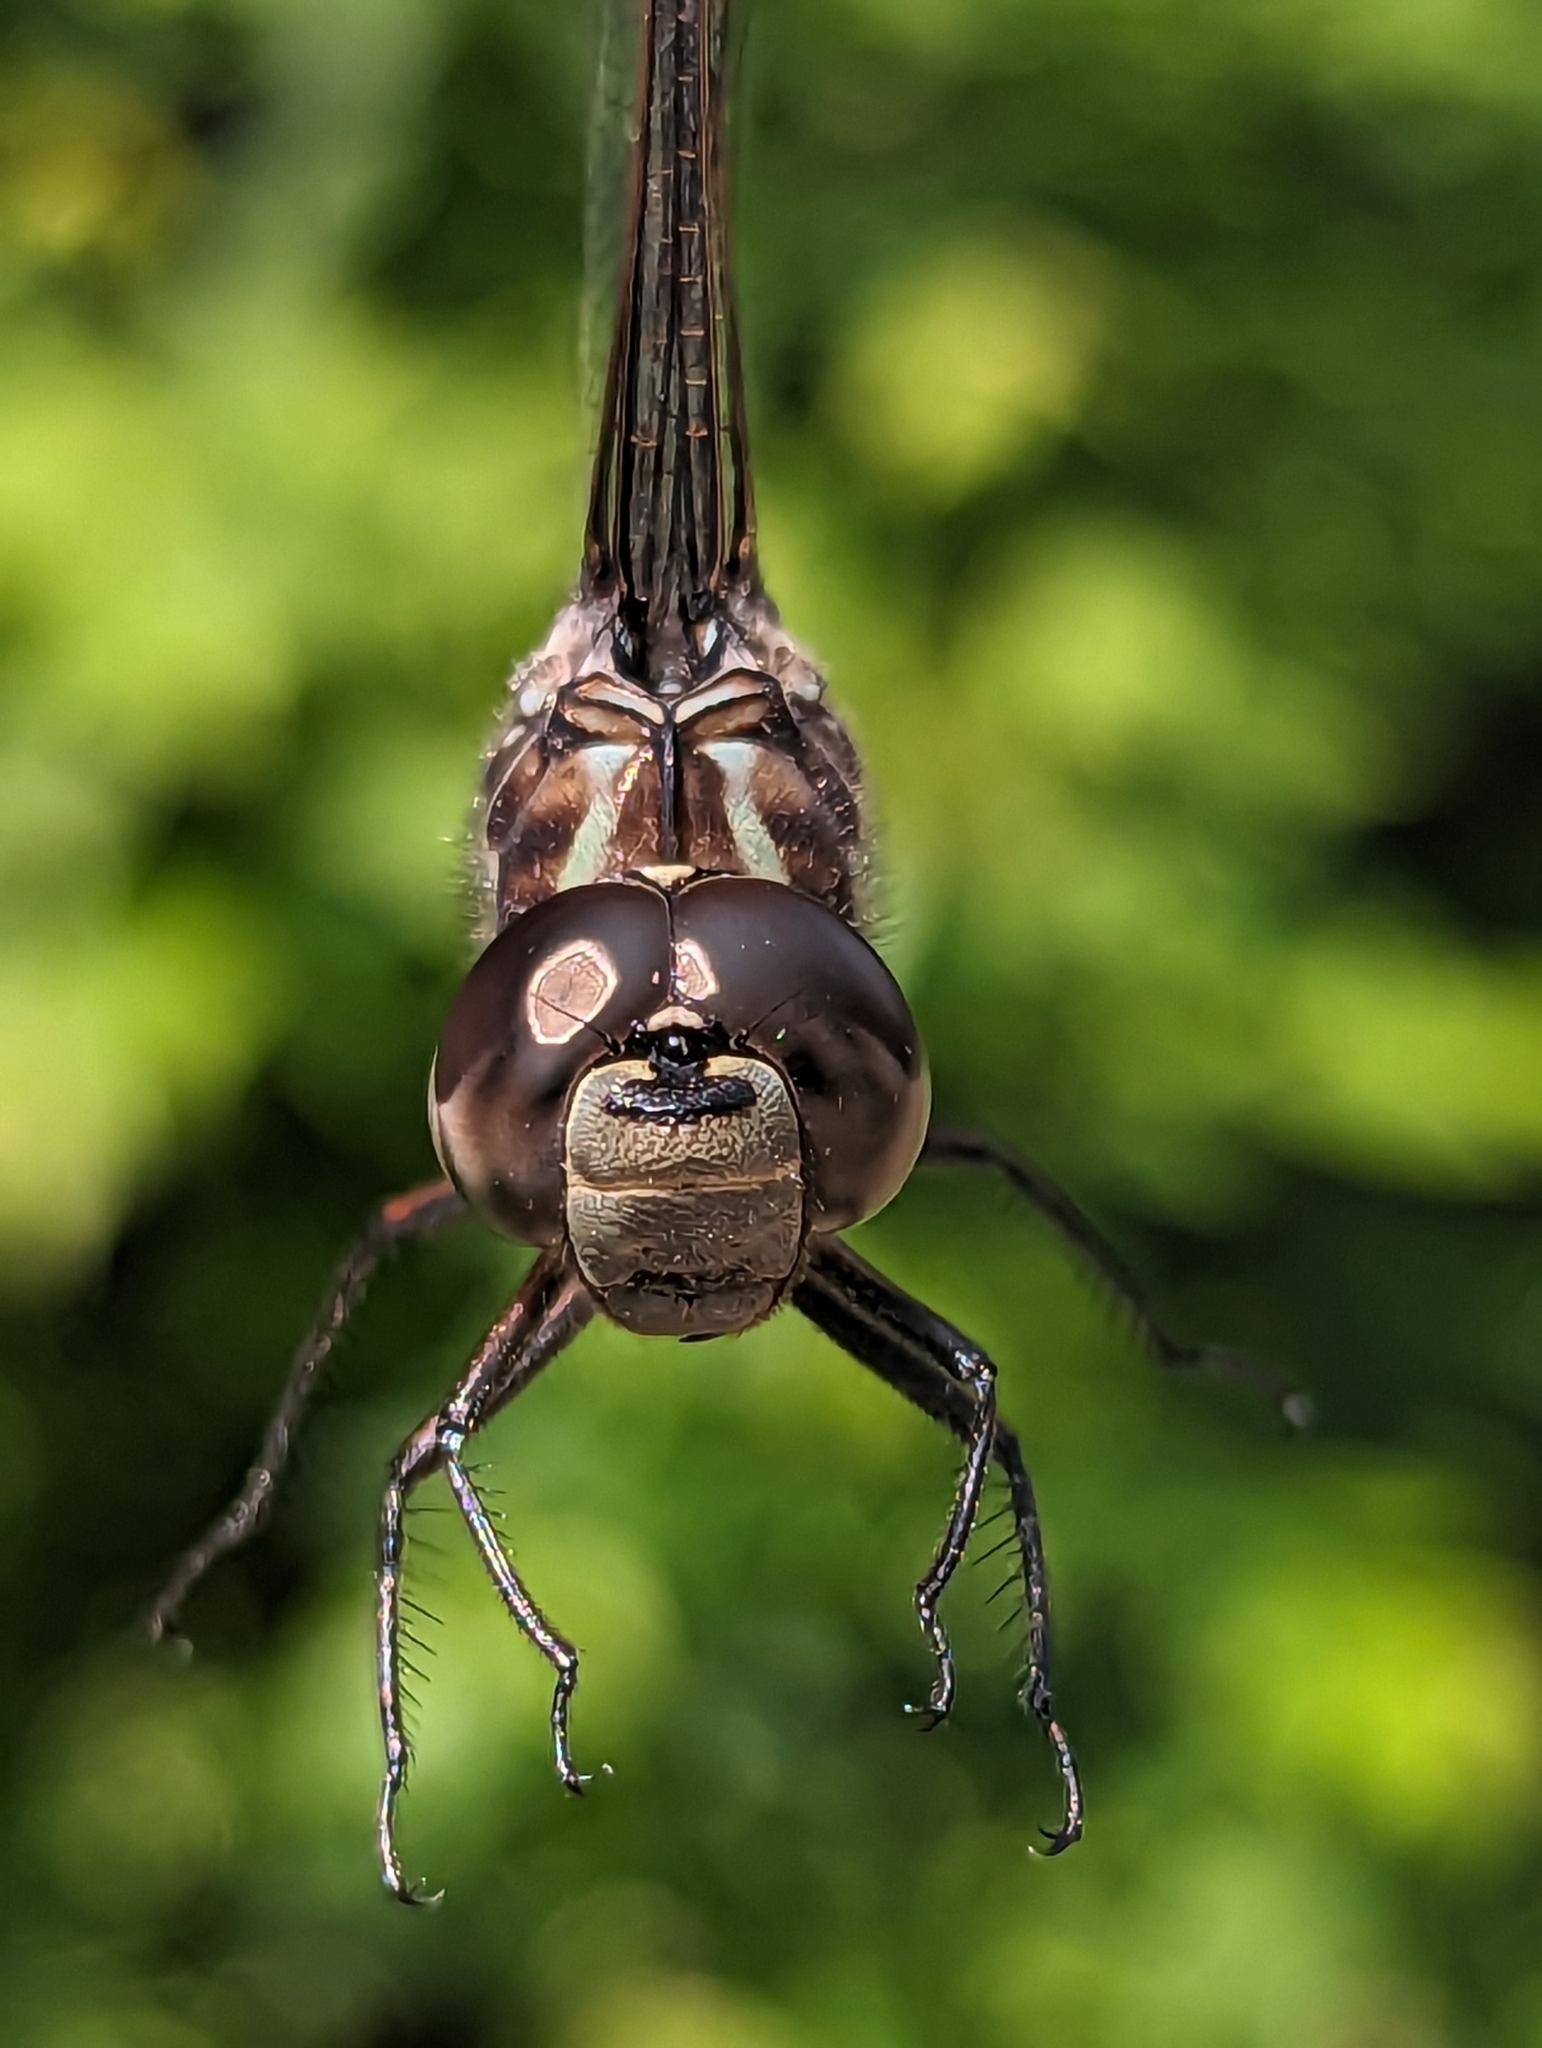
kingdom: Animalia
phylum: Arthropoda
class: Insecta
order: Odonata
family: Aeshnidae
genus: Aeshna
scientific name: Aeshna canadensis
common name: Canada darner
